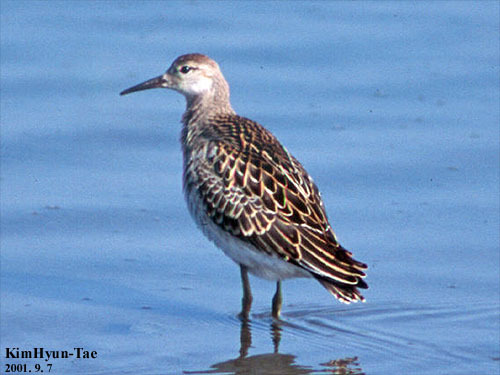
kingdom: Animalia
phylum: Chordata
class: Aves
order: Charadriiformes
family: Scolopacidae
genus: Calidris
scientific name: Calidris pugnax
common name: Ruff
